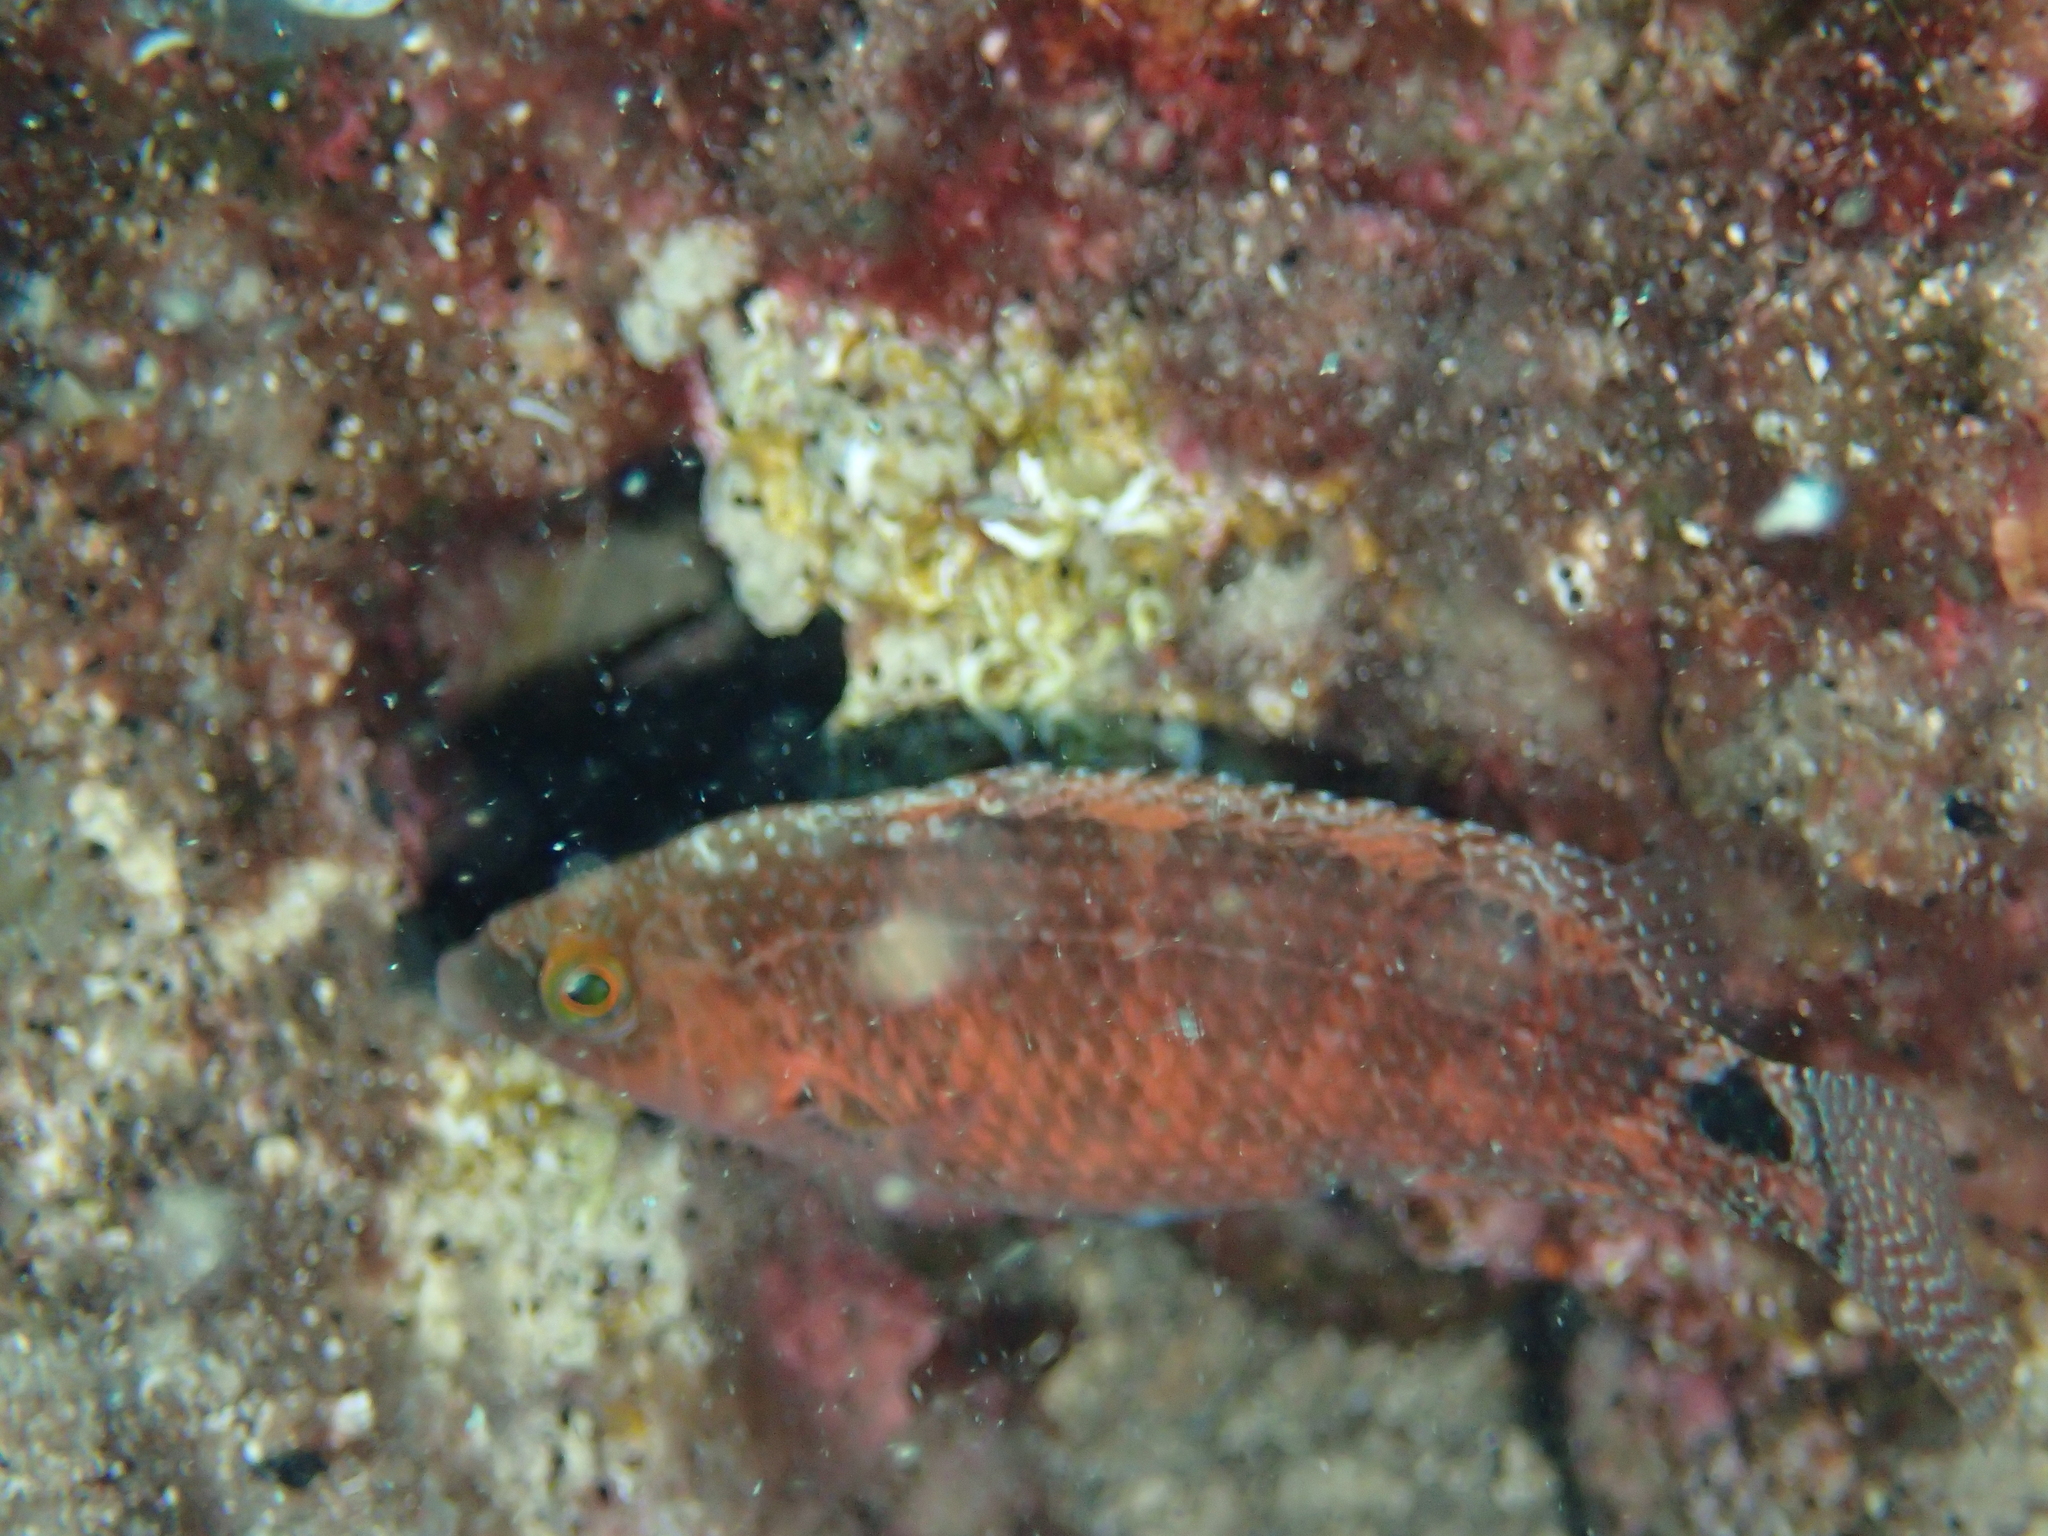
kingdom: Animalia
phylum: Chordata
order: Perciformes
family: Labridae
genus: Symphodus
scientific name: Symphodus mediterraneus
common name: Axillary wrasse
